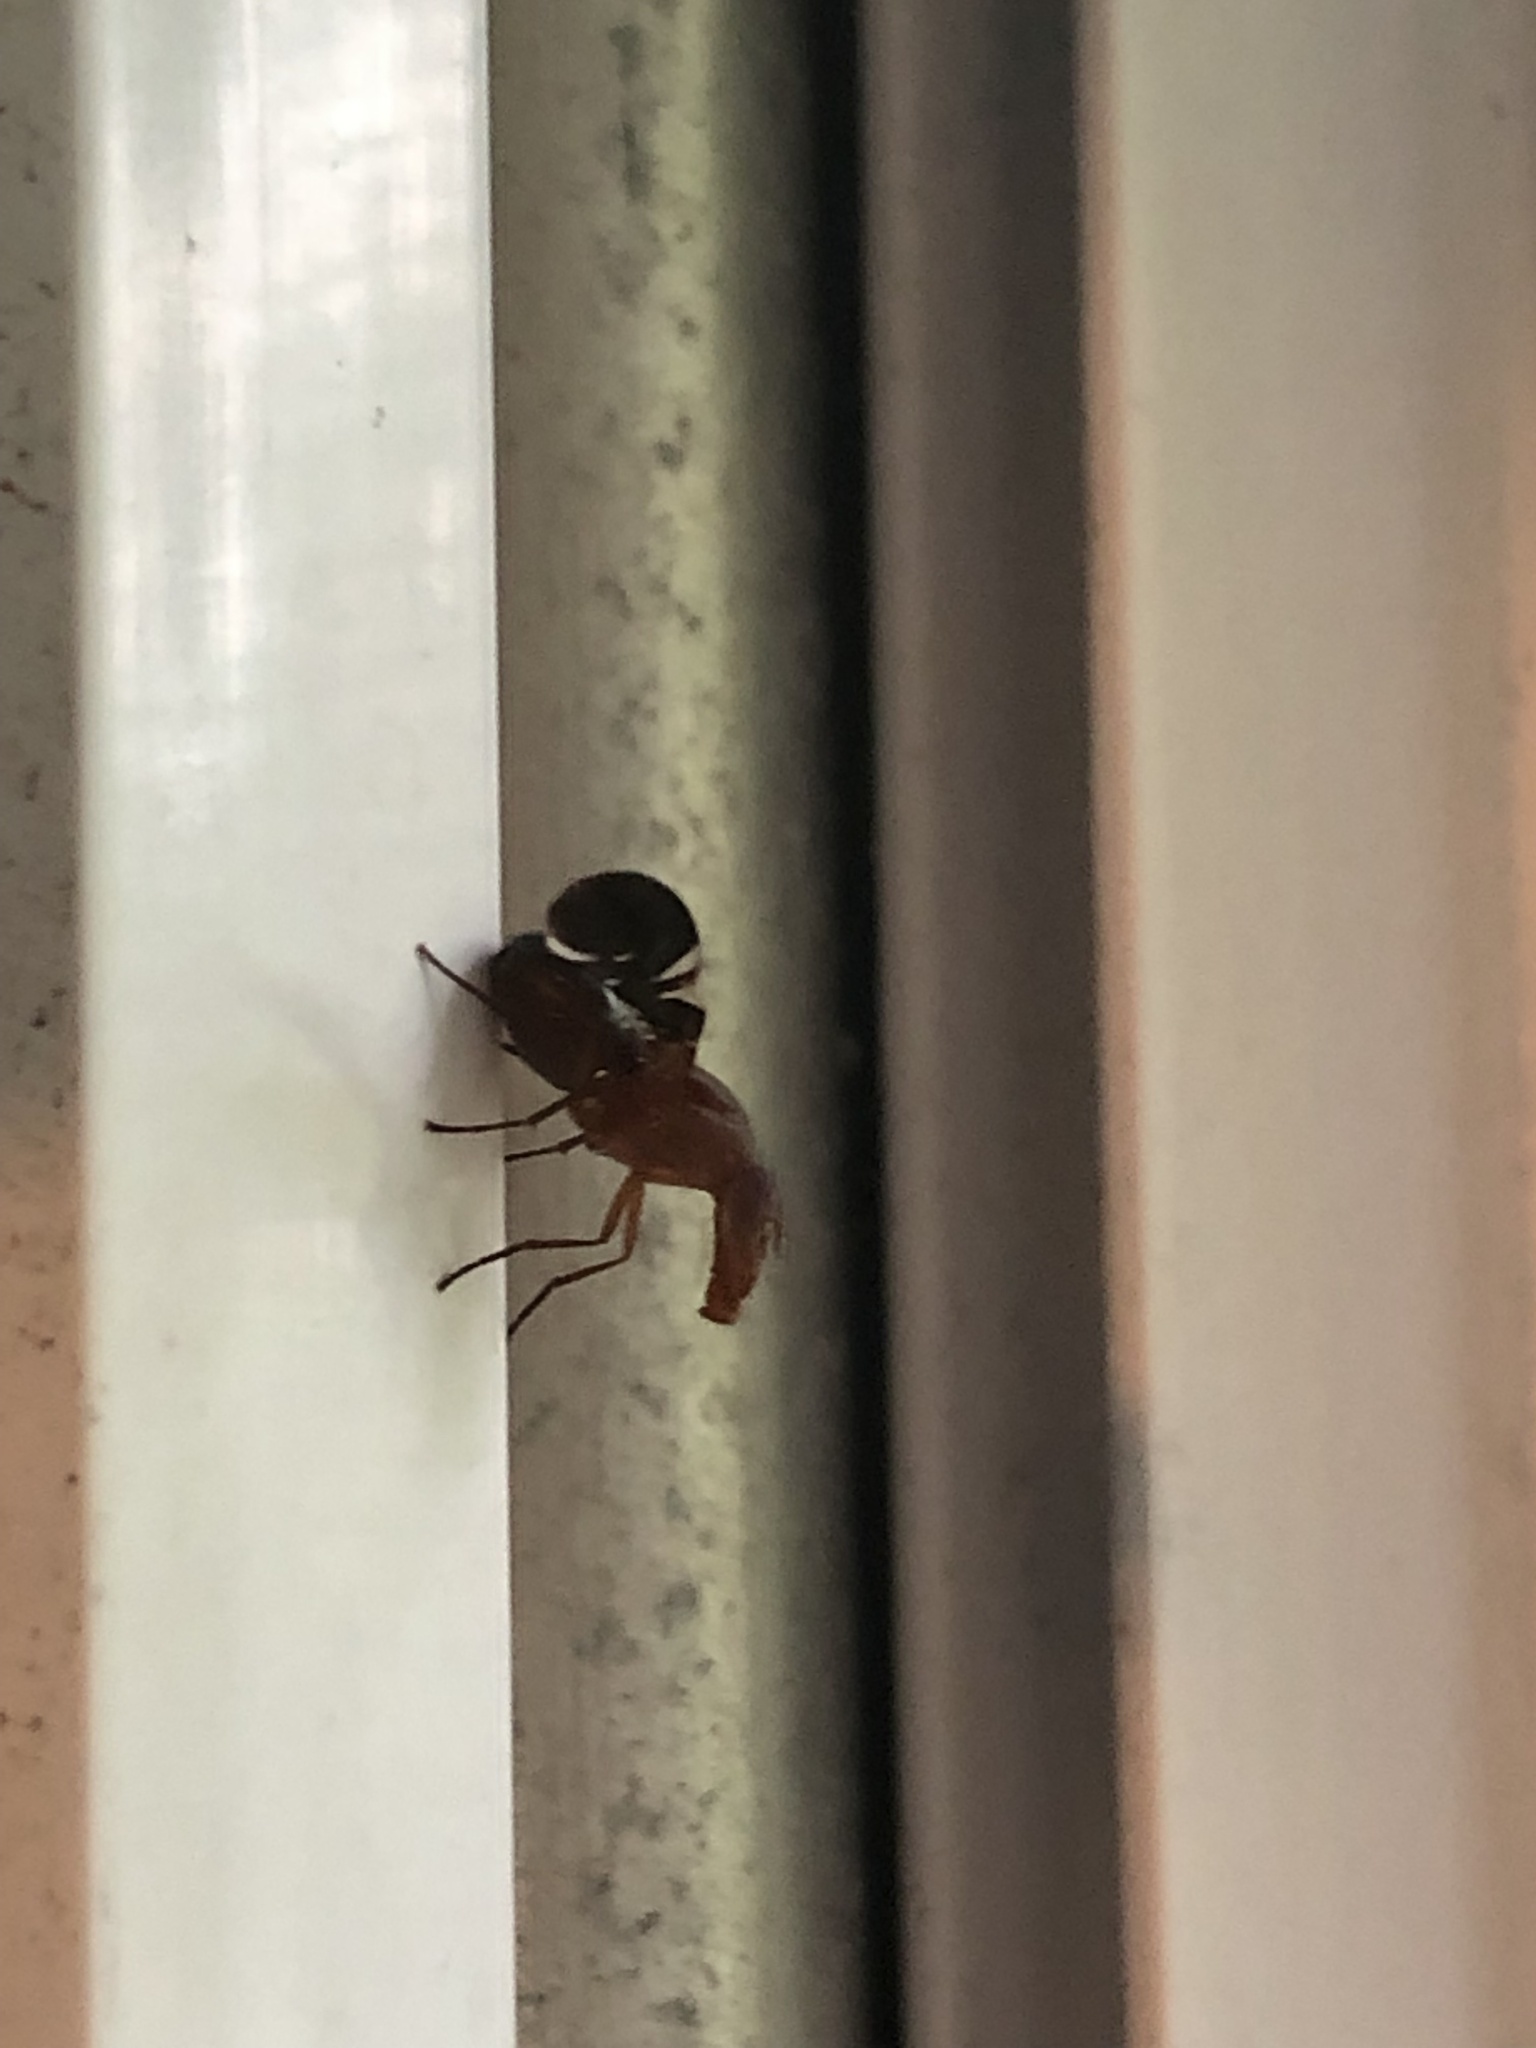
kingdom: Animalia
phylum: Arthropoda
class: Insecta
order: Diptera
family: Ulidiidae
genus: Delphinia
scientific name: Delphinia picta
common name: Common picture-winged fly
